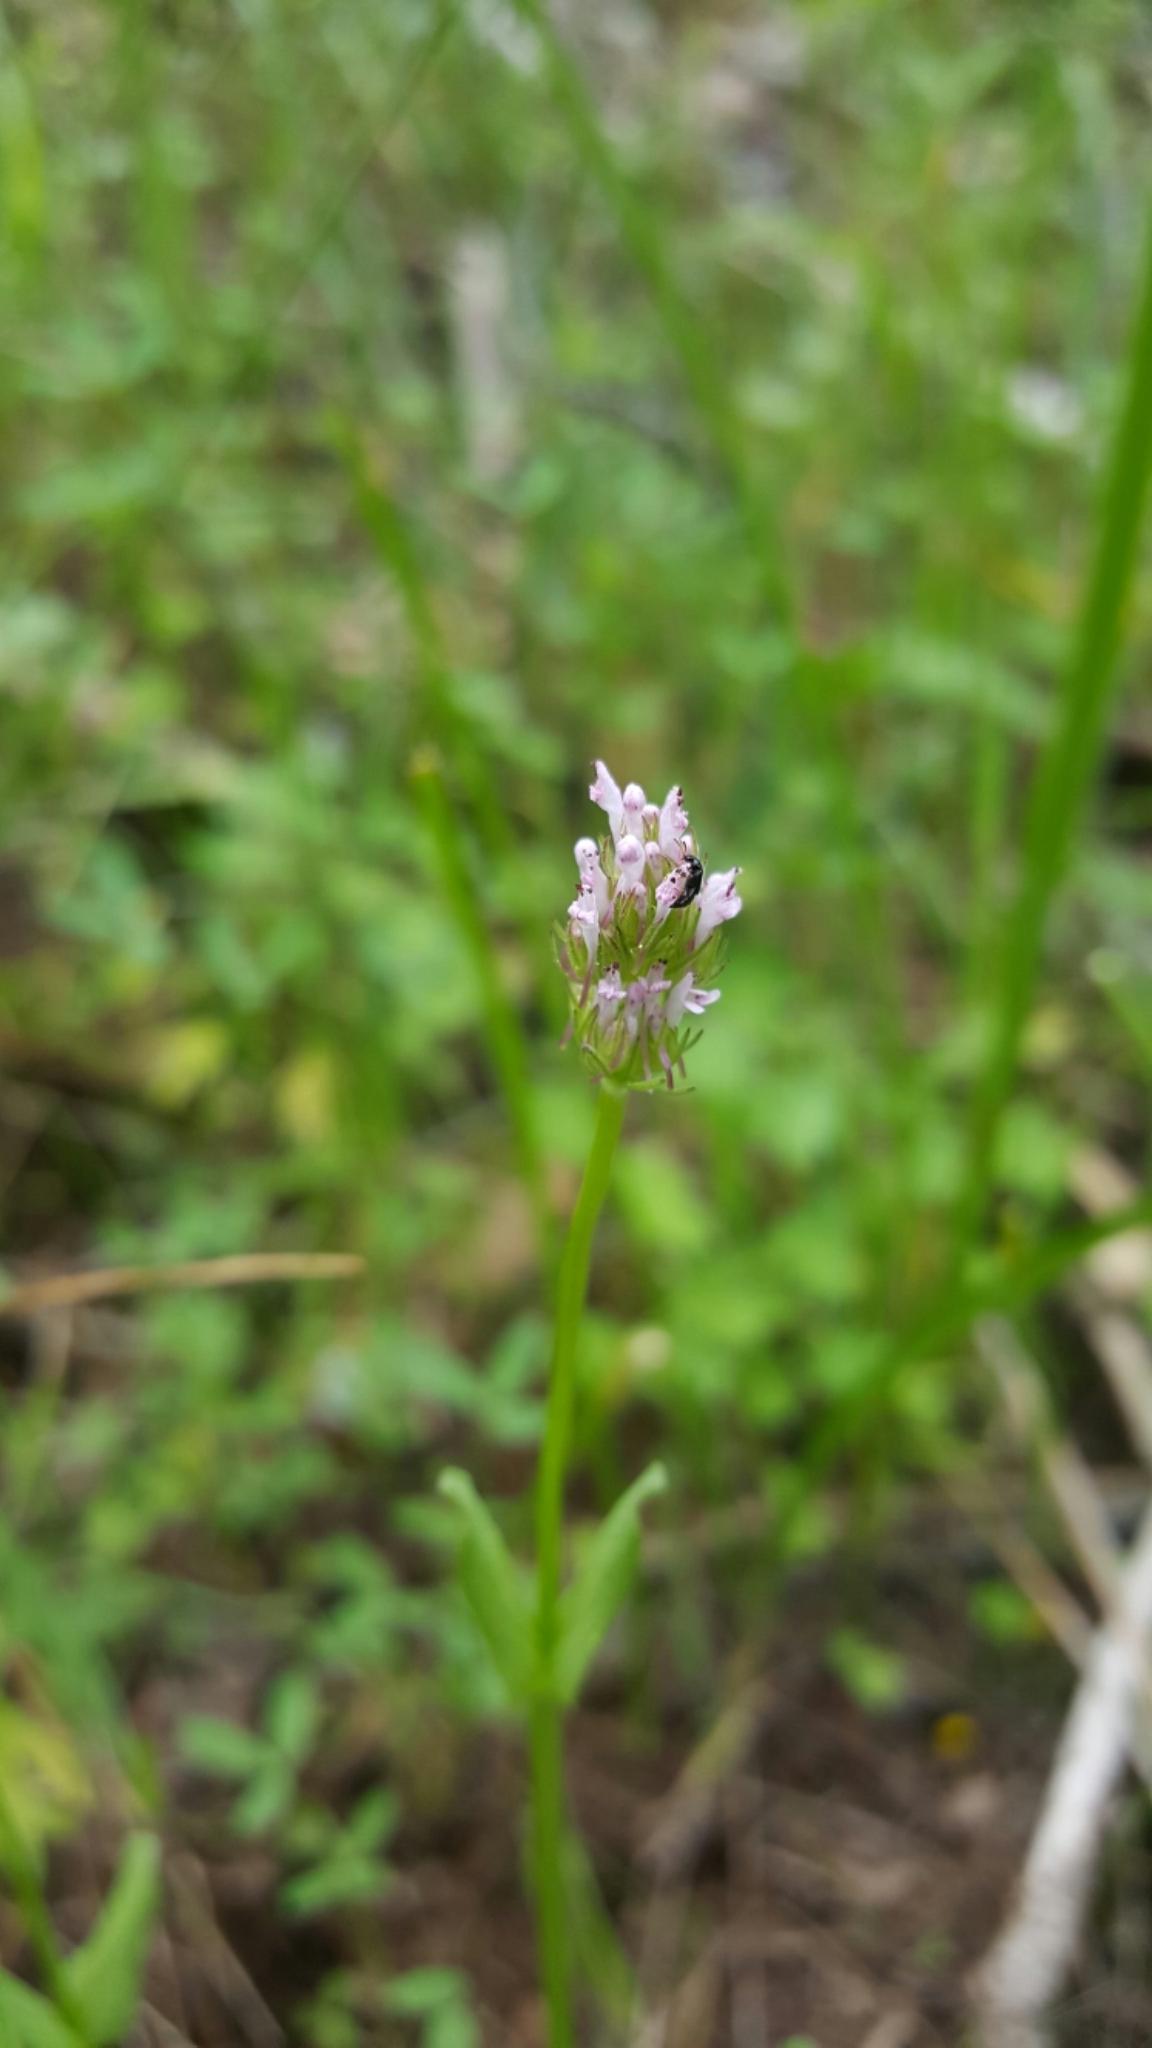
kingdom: Plantae
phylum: Tracheophyta
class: Magnoliopsida
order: Dipsacales
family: Caprifoliaceae
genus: Plectritis
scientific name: Plectritis ciliosa
